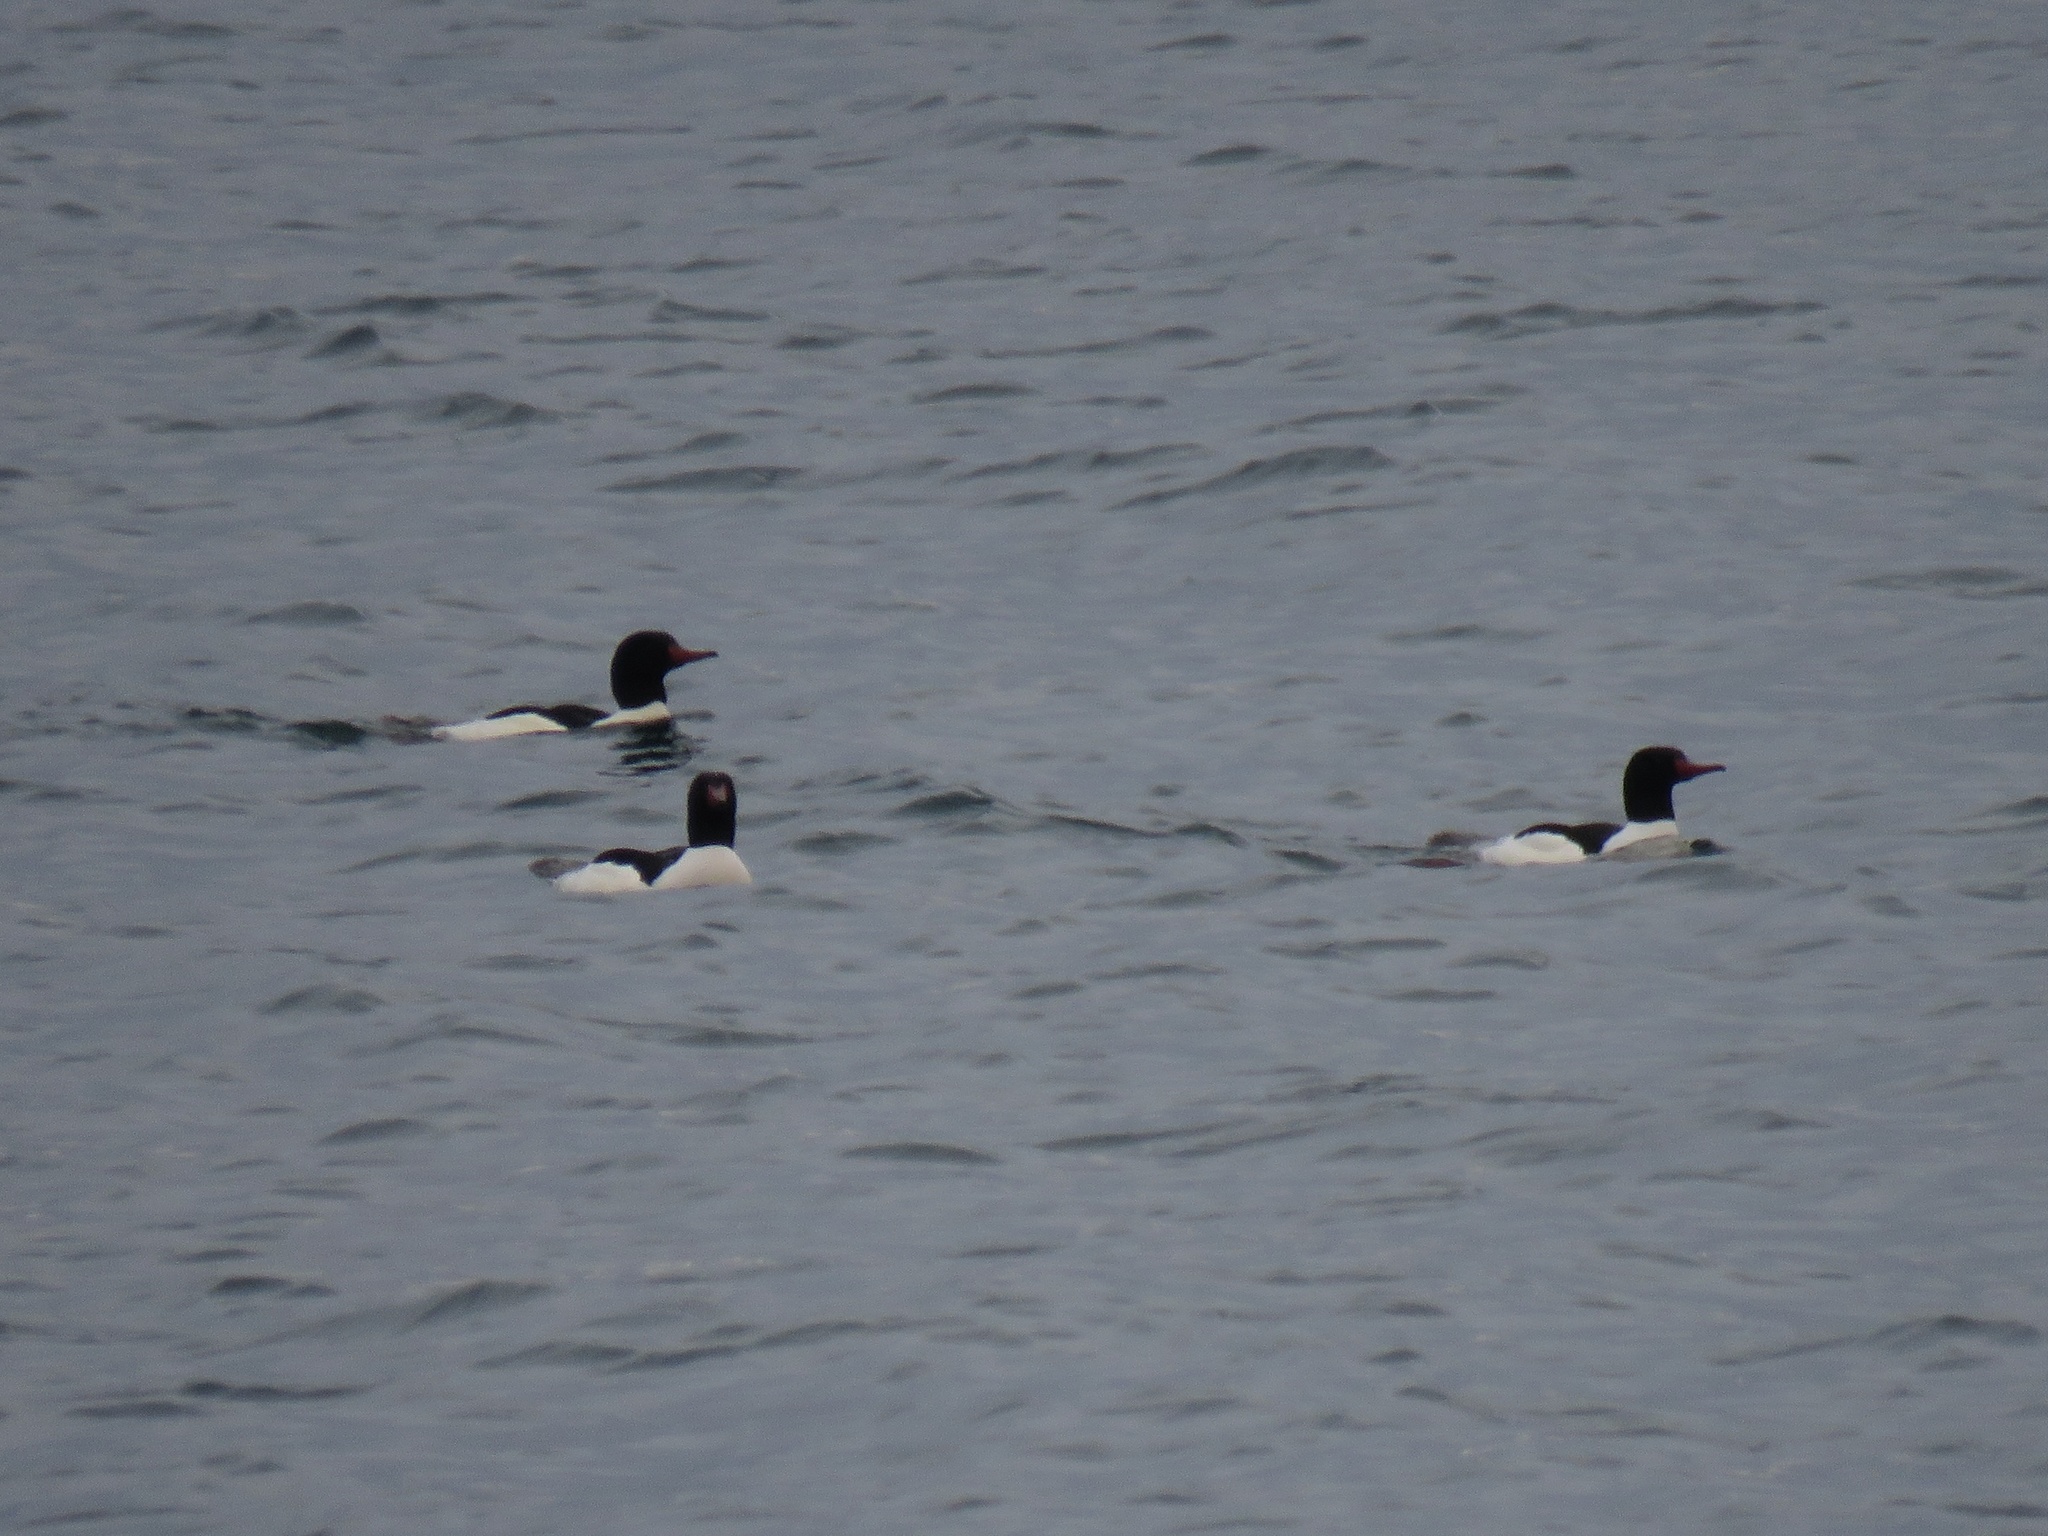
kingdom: Animalia
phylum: Chordata
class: Aves
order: Anseriformes
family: Anatidae
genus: Mergus
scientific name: Mergus merganser
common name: Common merganser
